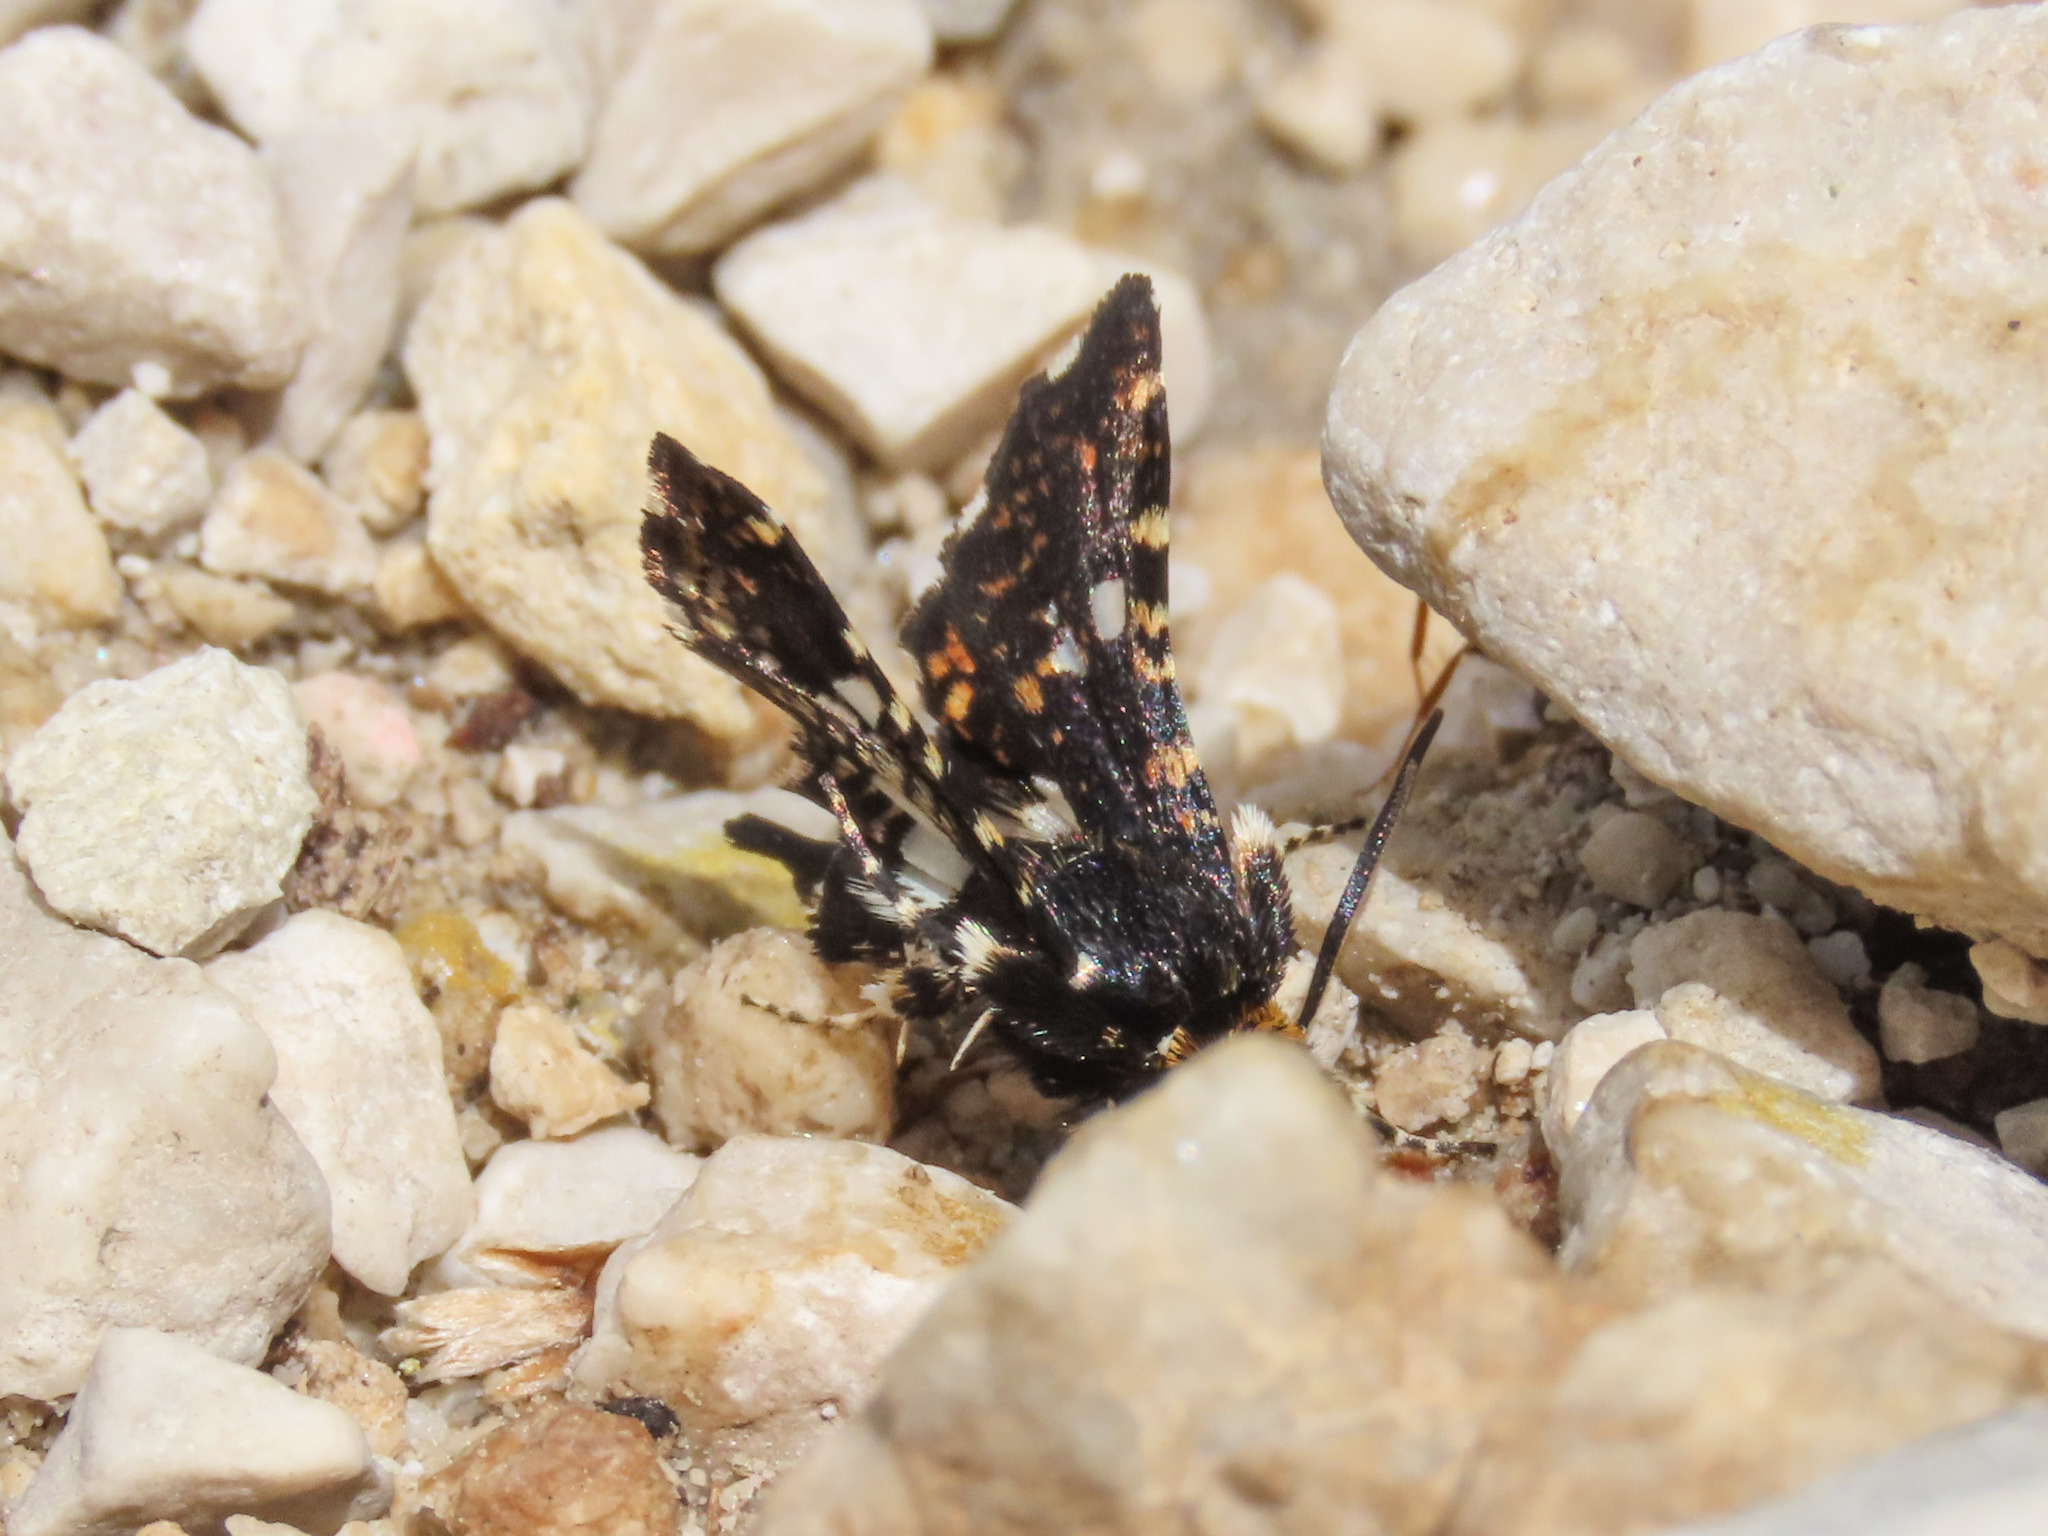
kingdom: Animalia
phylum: Arthropoda
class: Insecta
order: Lepidoptera
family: Thyrididae
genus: Thyris
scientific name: Thyris fenestrella
